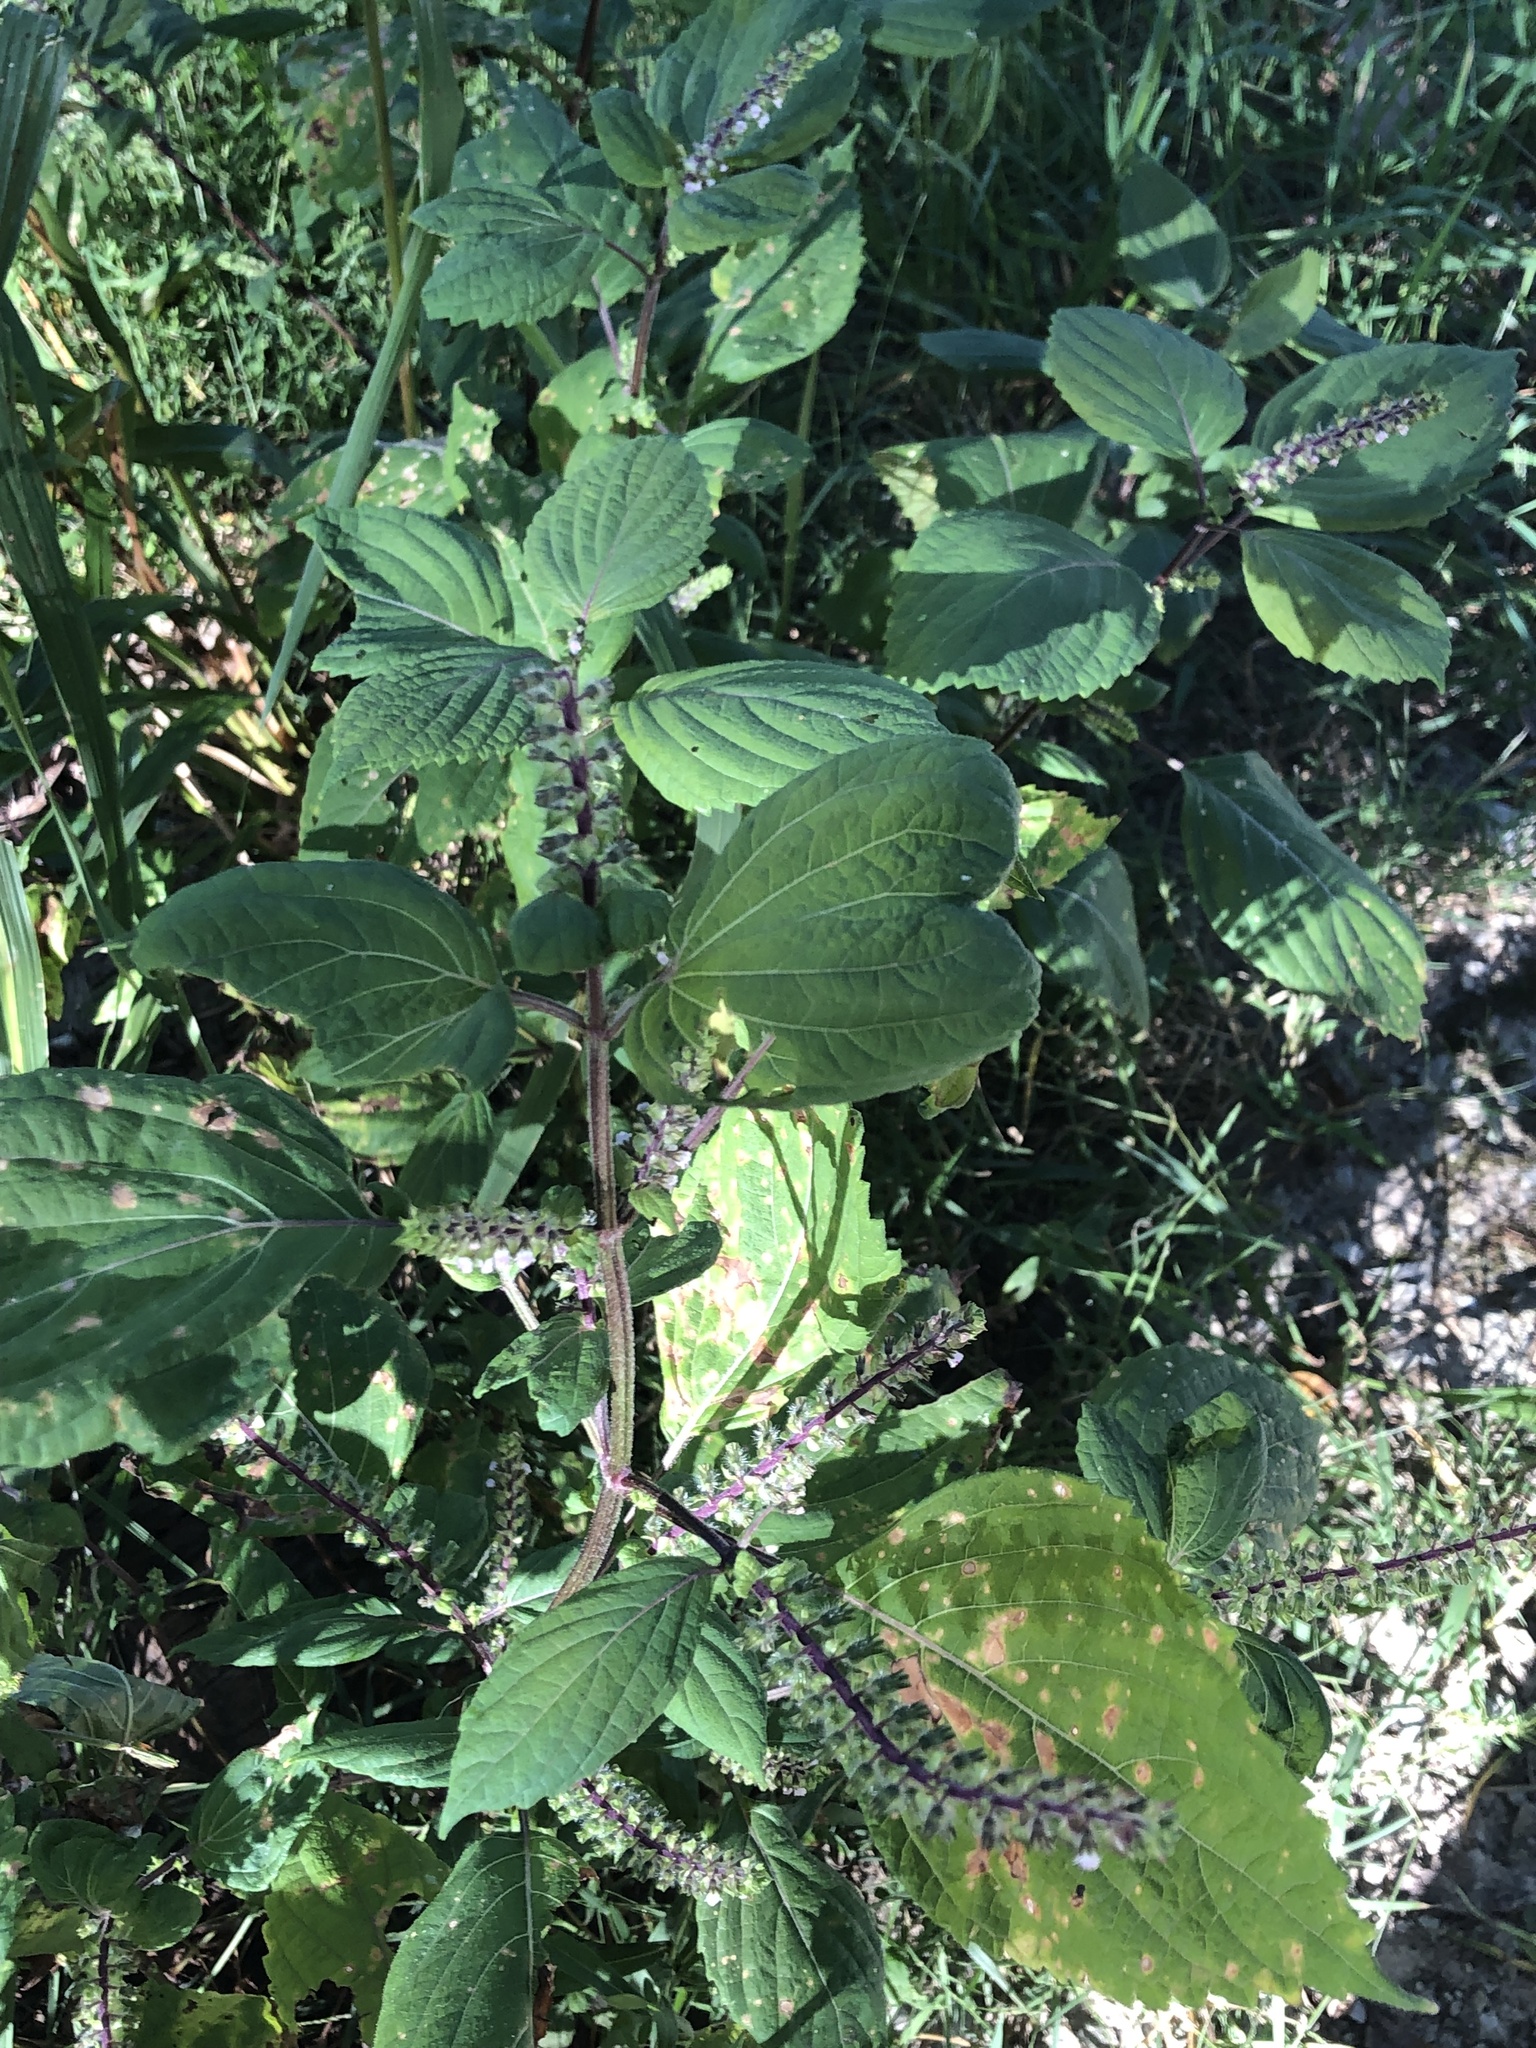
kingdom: Plantae
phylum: Tracheophyta
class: Magnoliopsida
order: Lamiales
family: Lamiaceae
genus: Perilla
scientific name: Perilla frutescens
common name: Perilla
